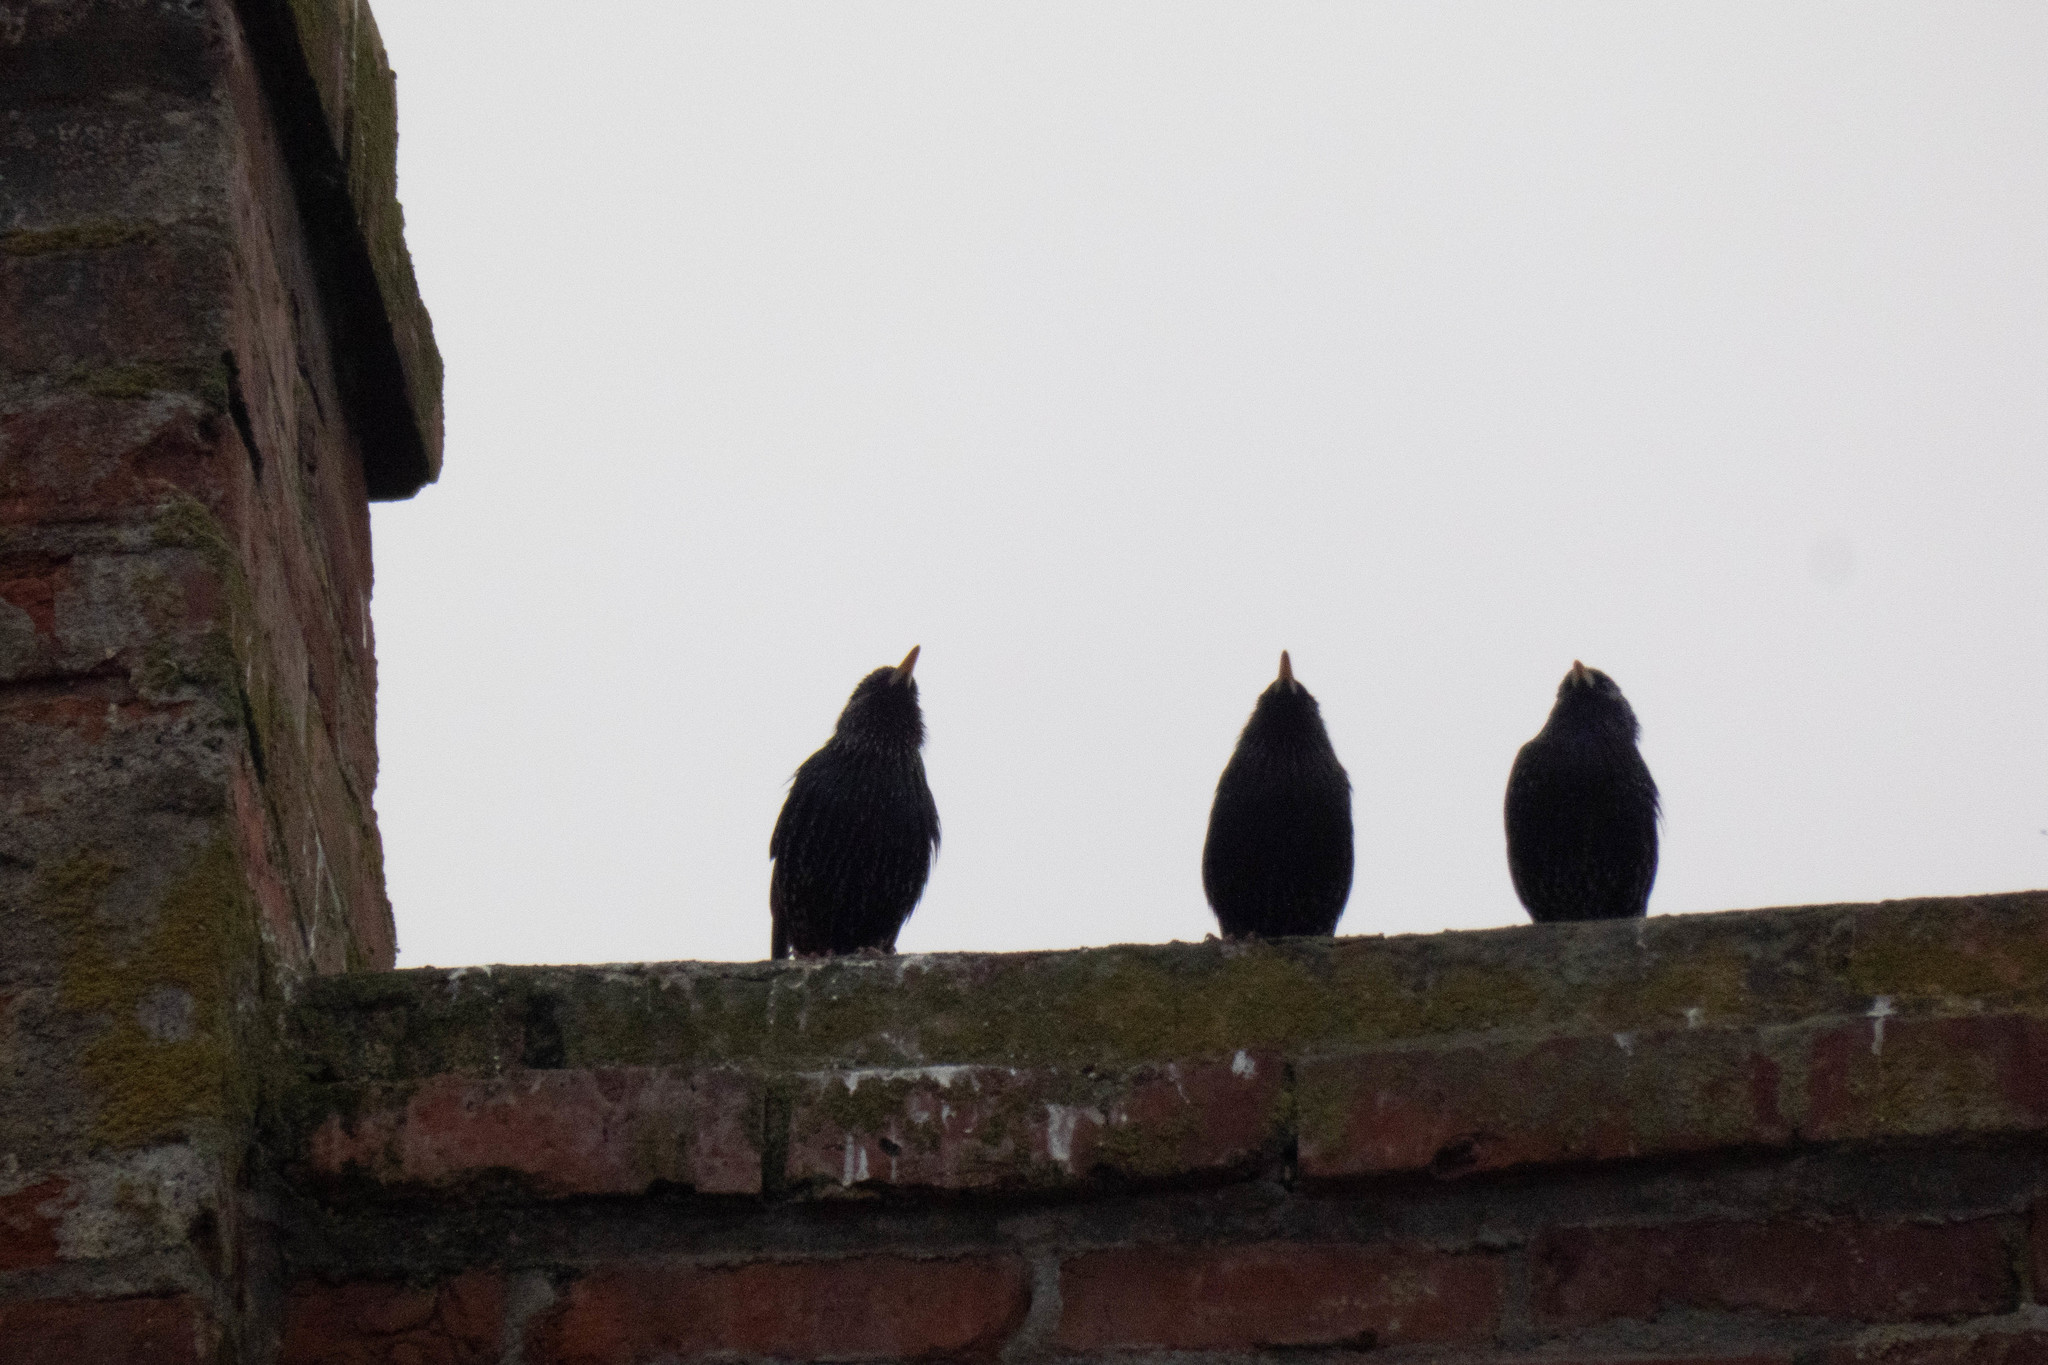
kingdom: Animalia
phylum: Chordata
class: Aves
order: Passeriformes
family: Sturnidae
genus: Sturnus
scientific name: Sturnus vulgaris
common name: Common starling
